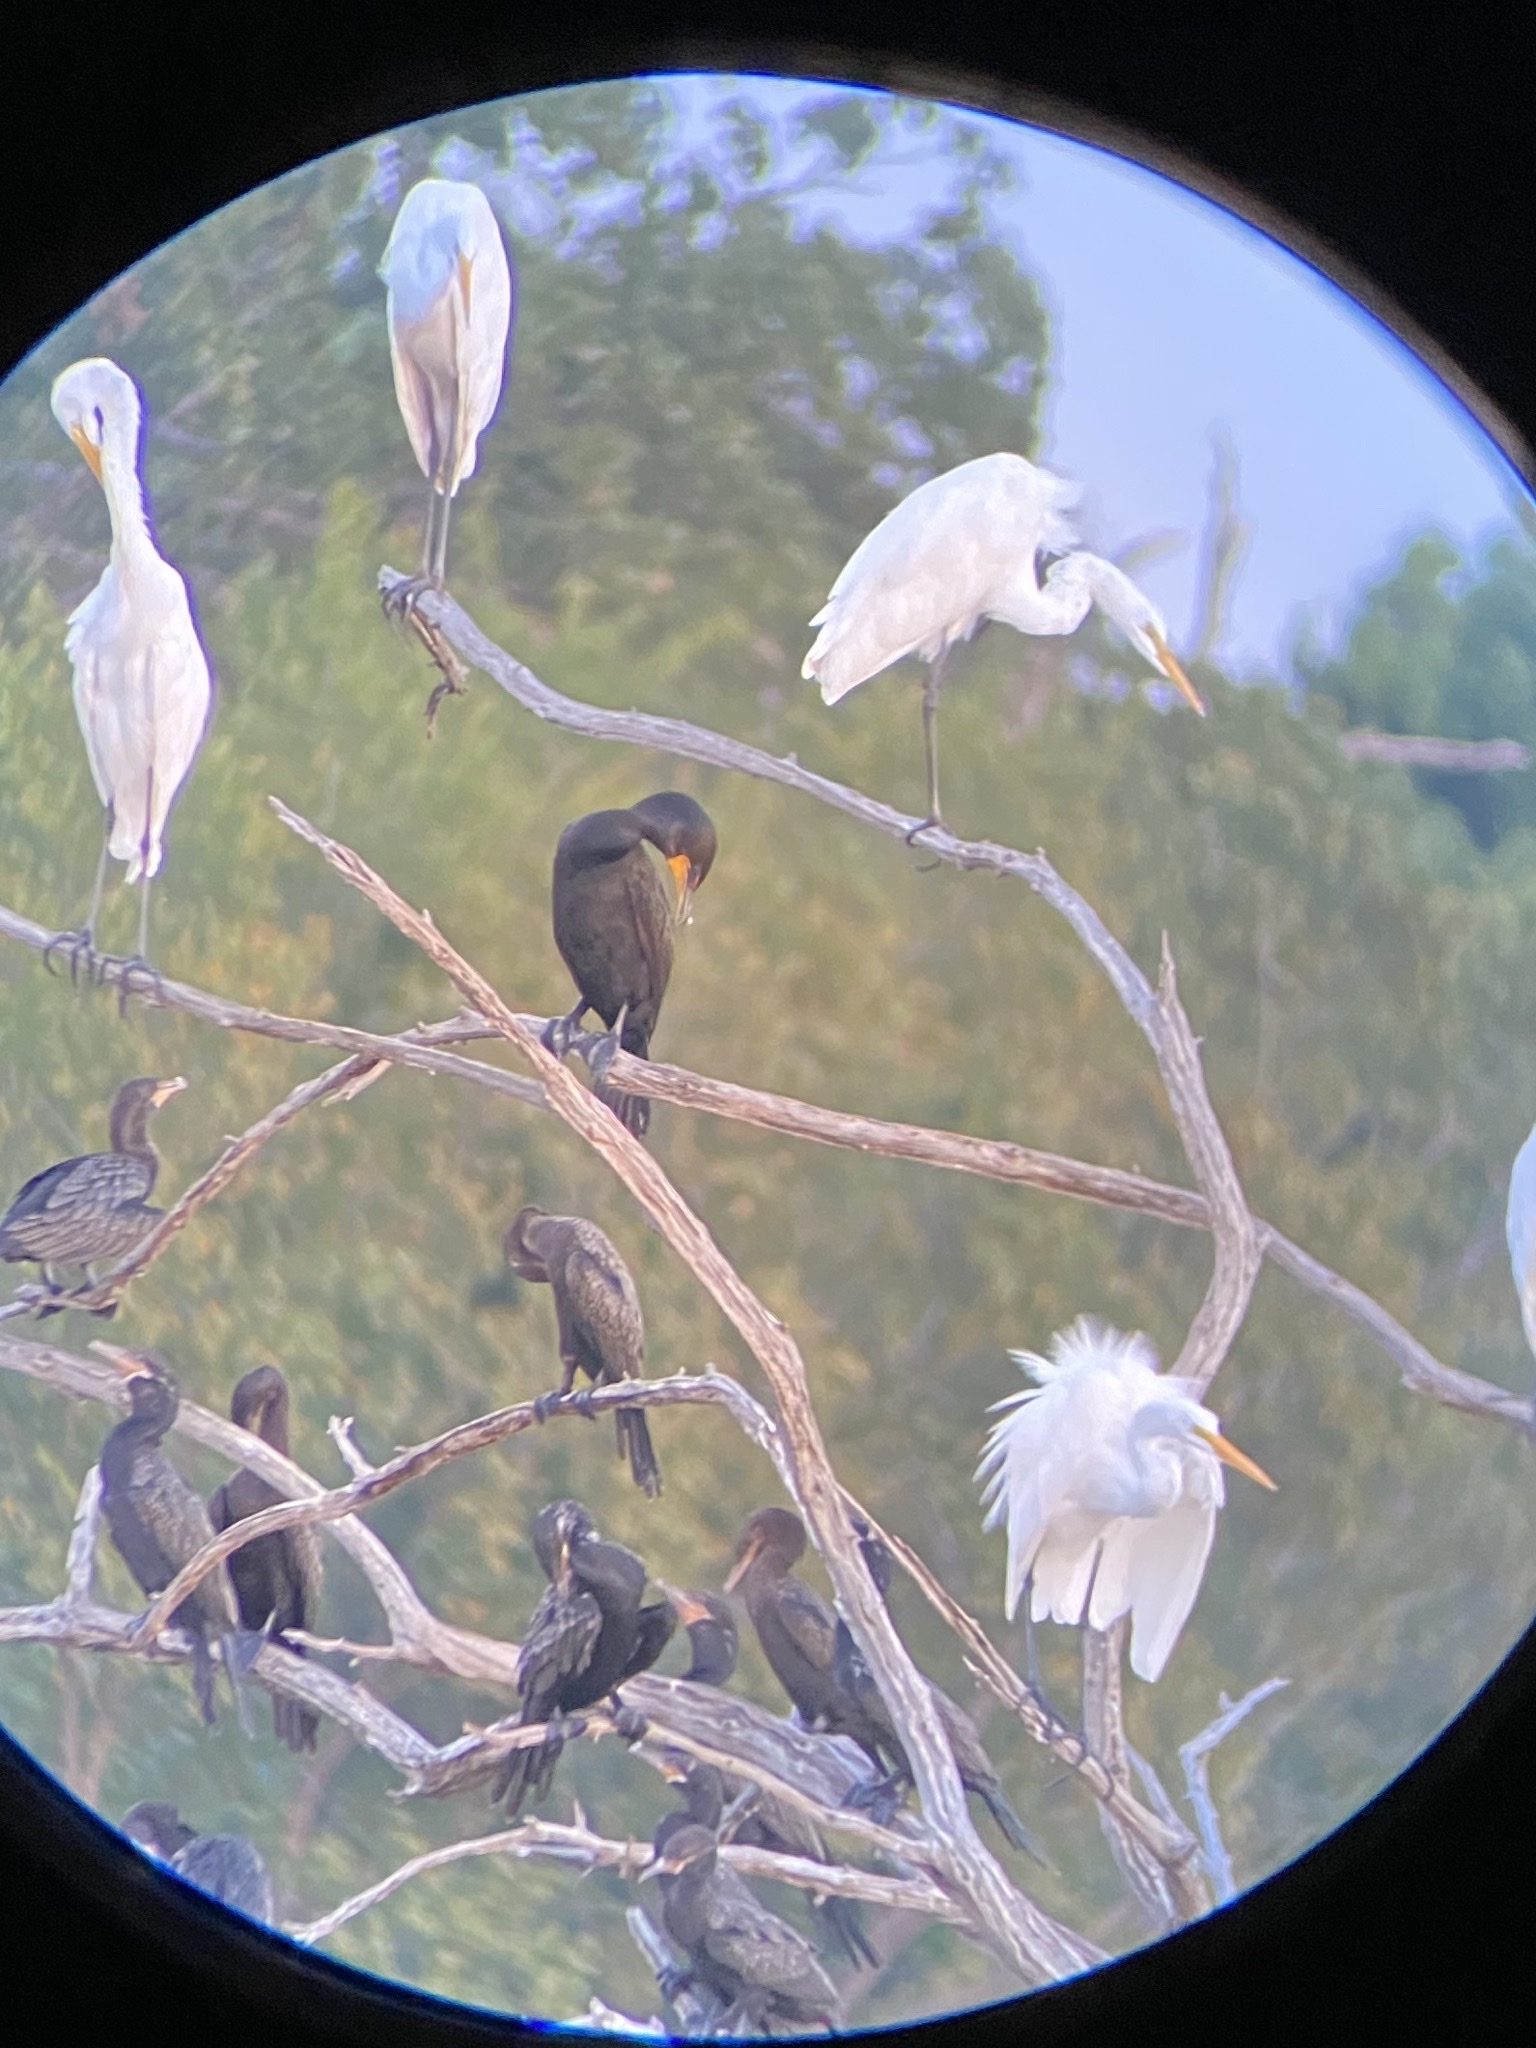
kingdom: Animalia
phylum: Chordata
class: Aves
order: Suliformes
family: Phalacrocoracidae
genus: Phalacrocorax
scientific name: Phalacrocorax auritus
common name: Double-crested cormorant
